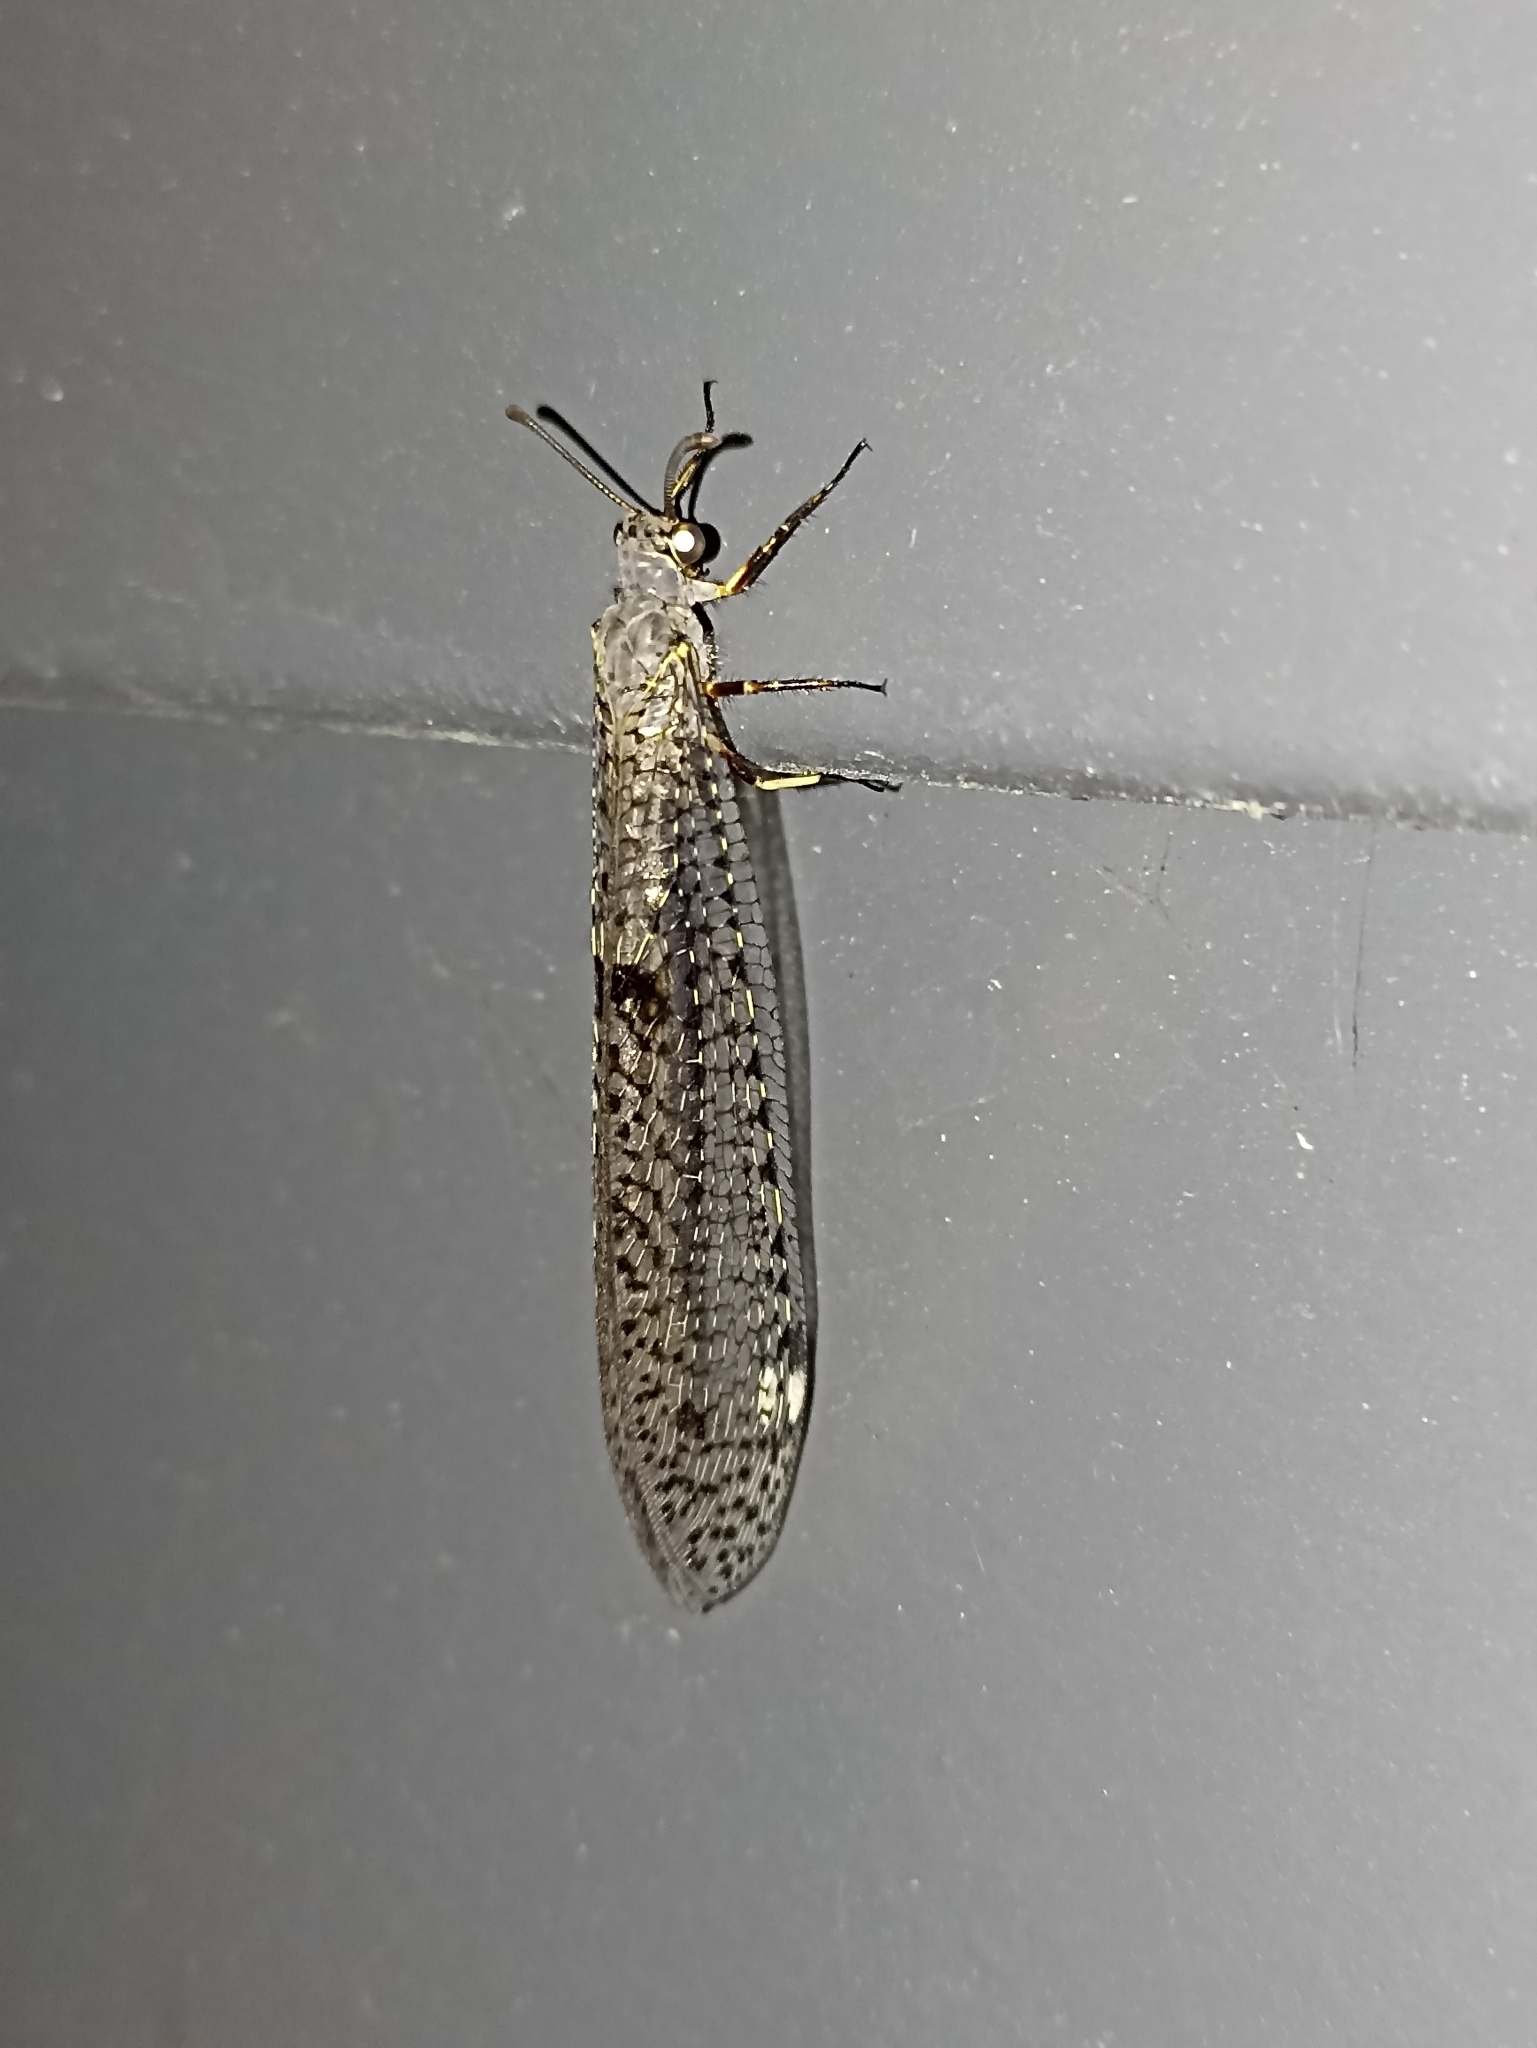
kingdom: Animalia
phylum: Arthropoda
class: Insecta
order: Neuroptera
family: Myrmeleontidae
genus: Weeleus
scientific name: Weeleus acutus
